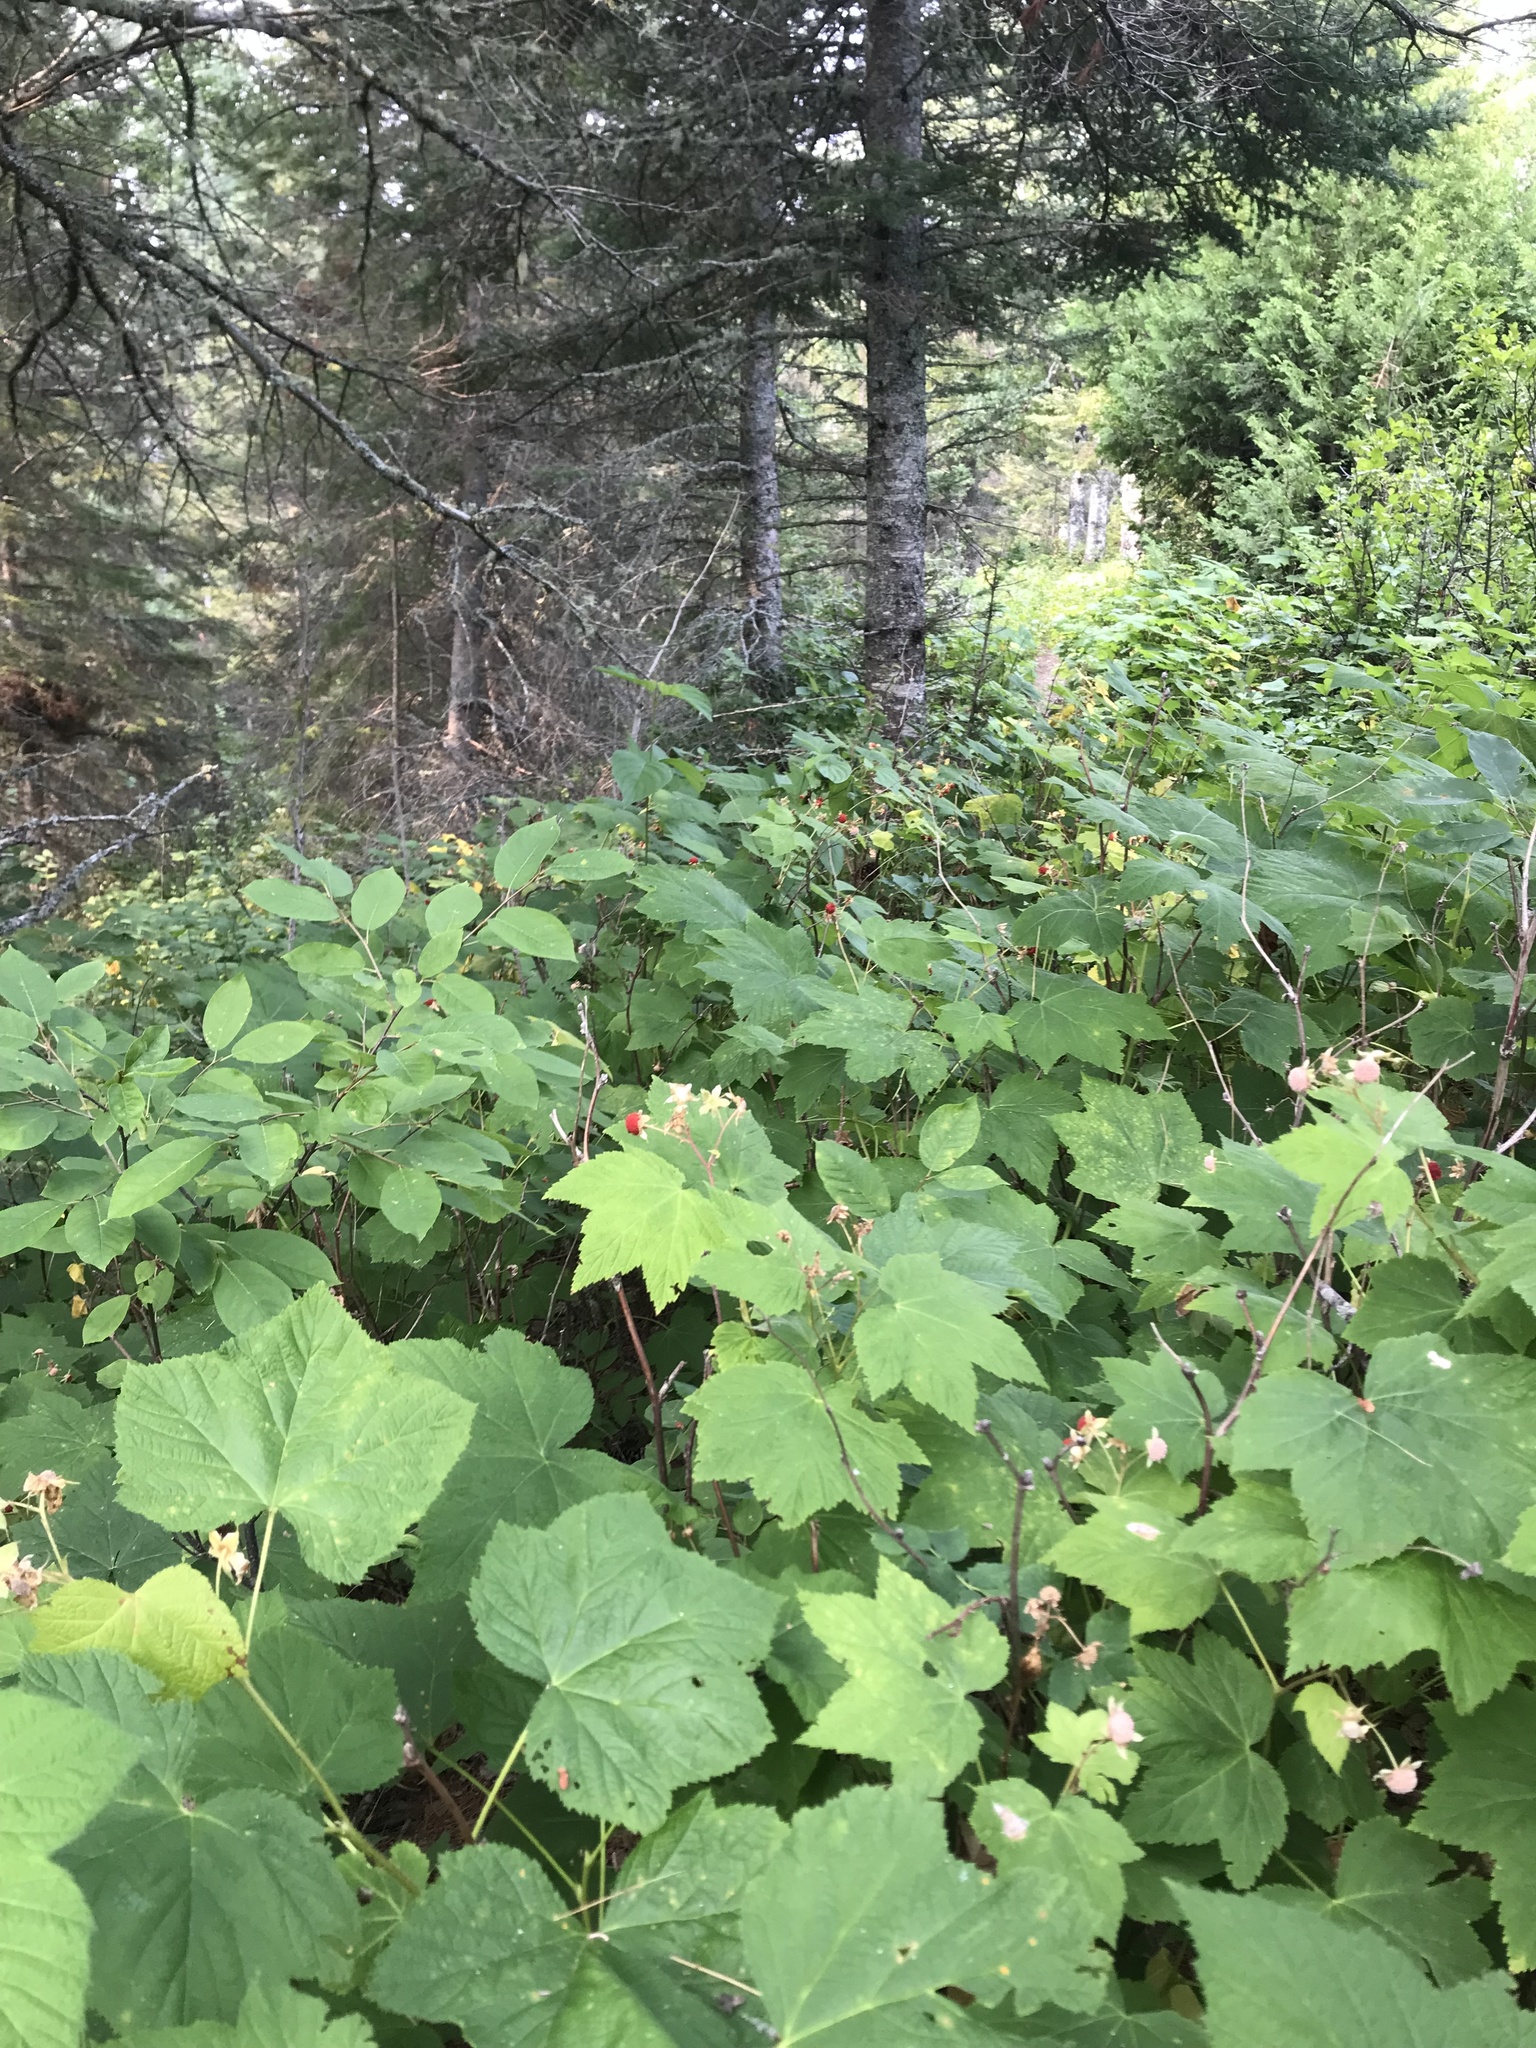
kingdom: Plantae
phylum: Tracheophyta
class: Magnoliopsida
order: Rosales
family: Rosaceae
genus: Rubus
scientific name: Rubus parviflorus
